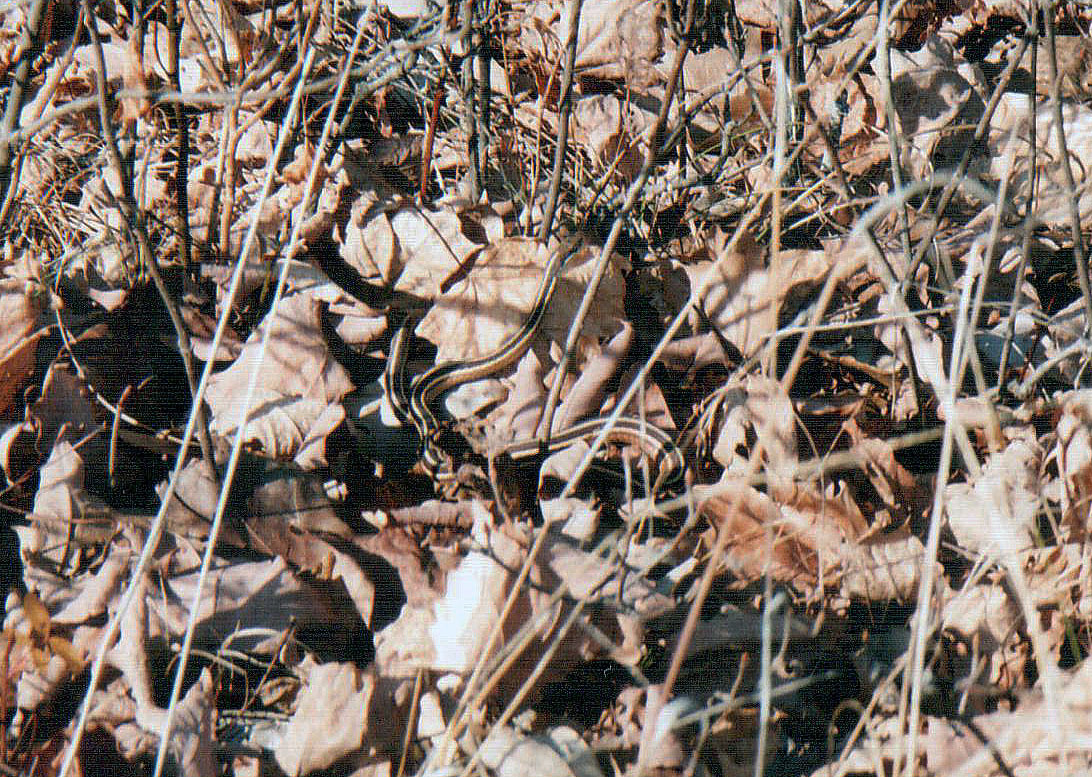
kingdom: Animalia
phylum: Chordata
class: Squamata
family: Colubridae
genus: Thamnophis
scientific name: Thamnophis saurita
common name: Eastern ribbonsnake
